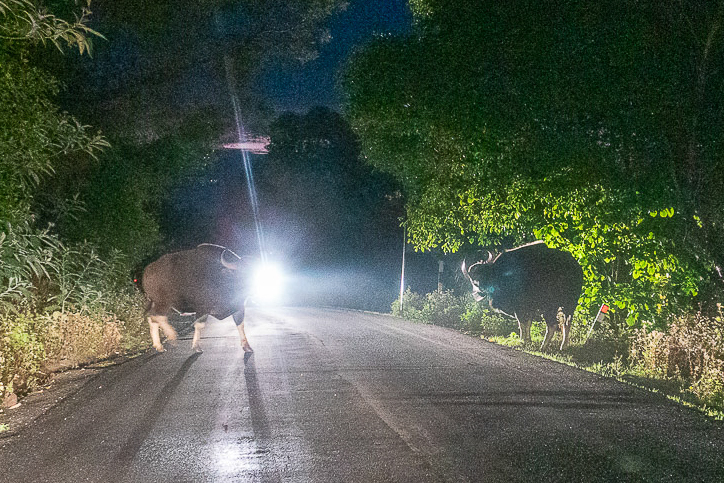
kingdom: Animalia
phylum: Chordata
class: Mammalia
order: Artiodactyla
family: Bovidae
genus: Bos
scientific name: Bos frontalis
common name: Gaur
